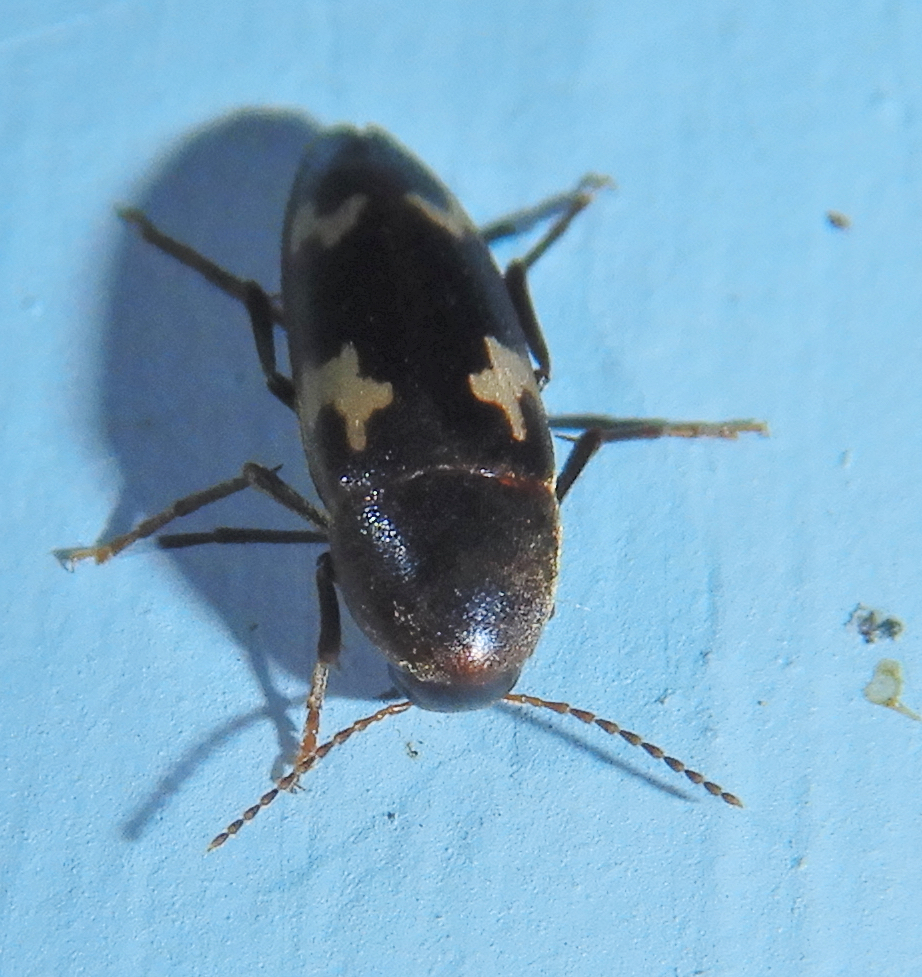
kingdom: Animalia
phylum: Arthropoda
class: Insecta
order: Coleoptera
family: Melandryidae
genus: Dircaea
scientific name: Dircaea liturata
